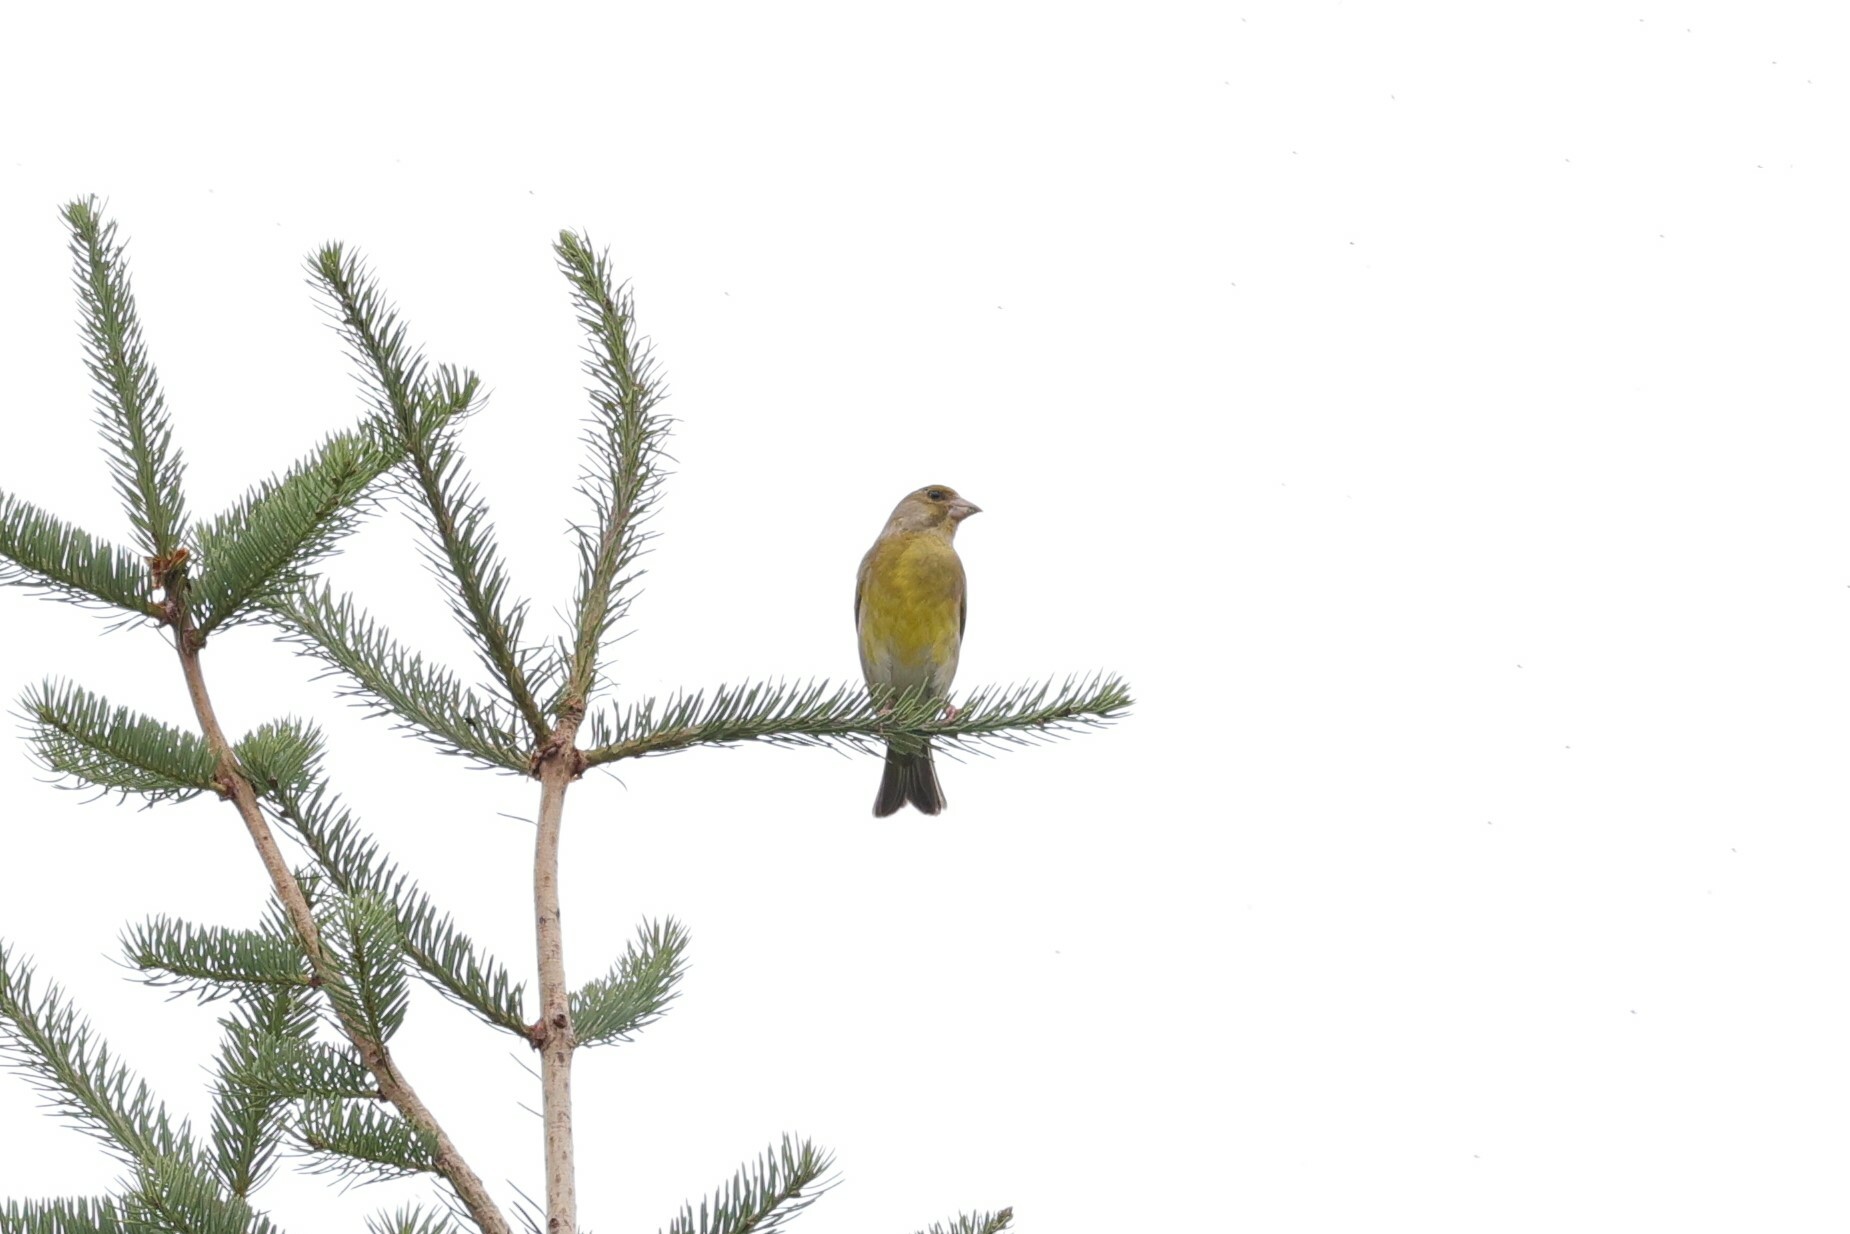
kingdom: Plantae
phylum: Tracheophyta
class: Liliopsida
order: Poales
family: Poaceae
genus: Chloris
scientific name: Chloris chloris
